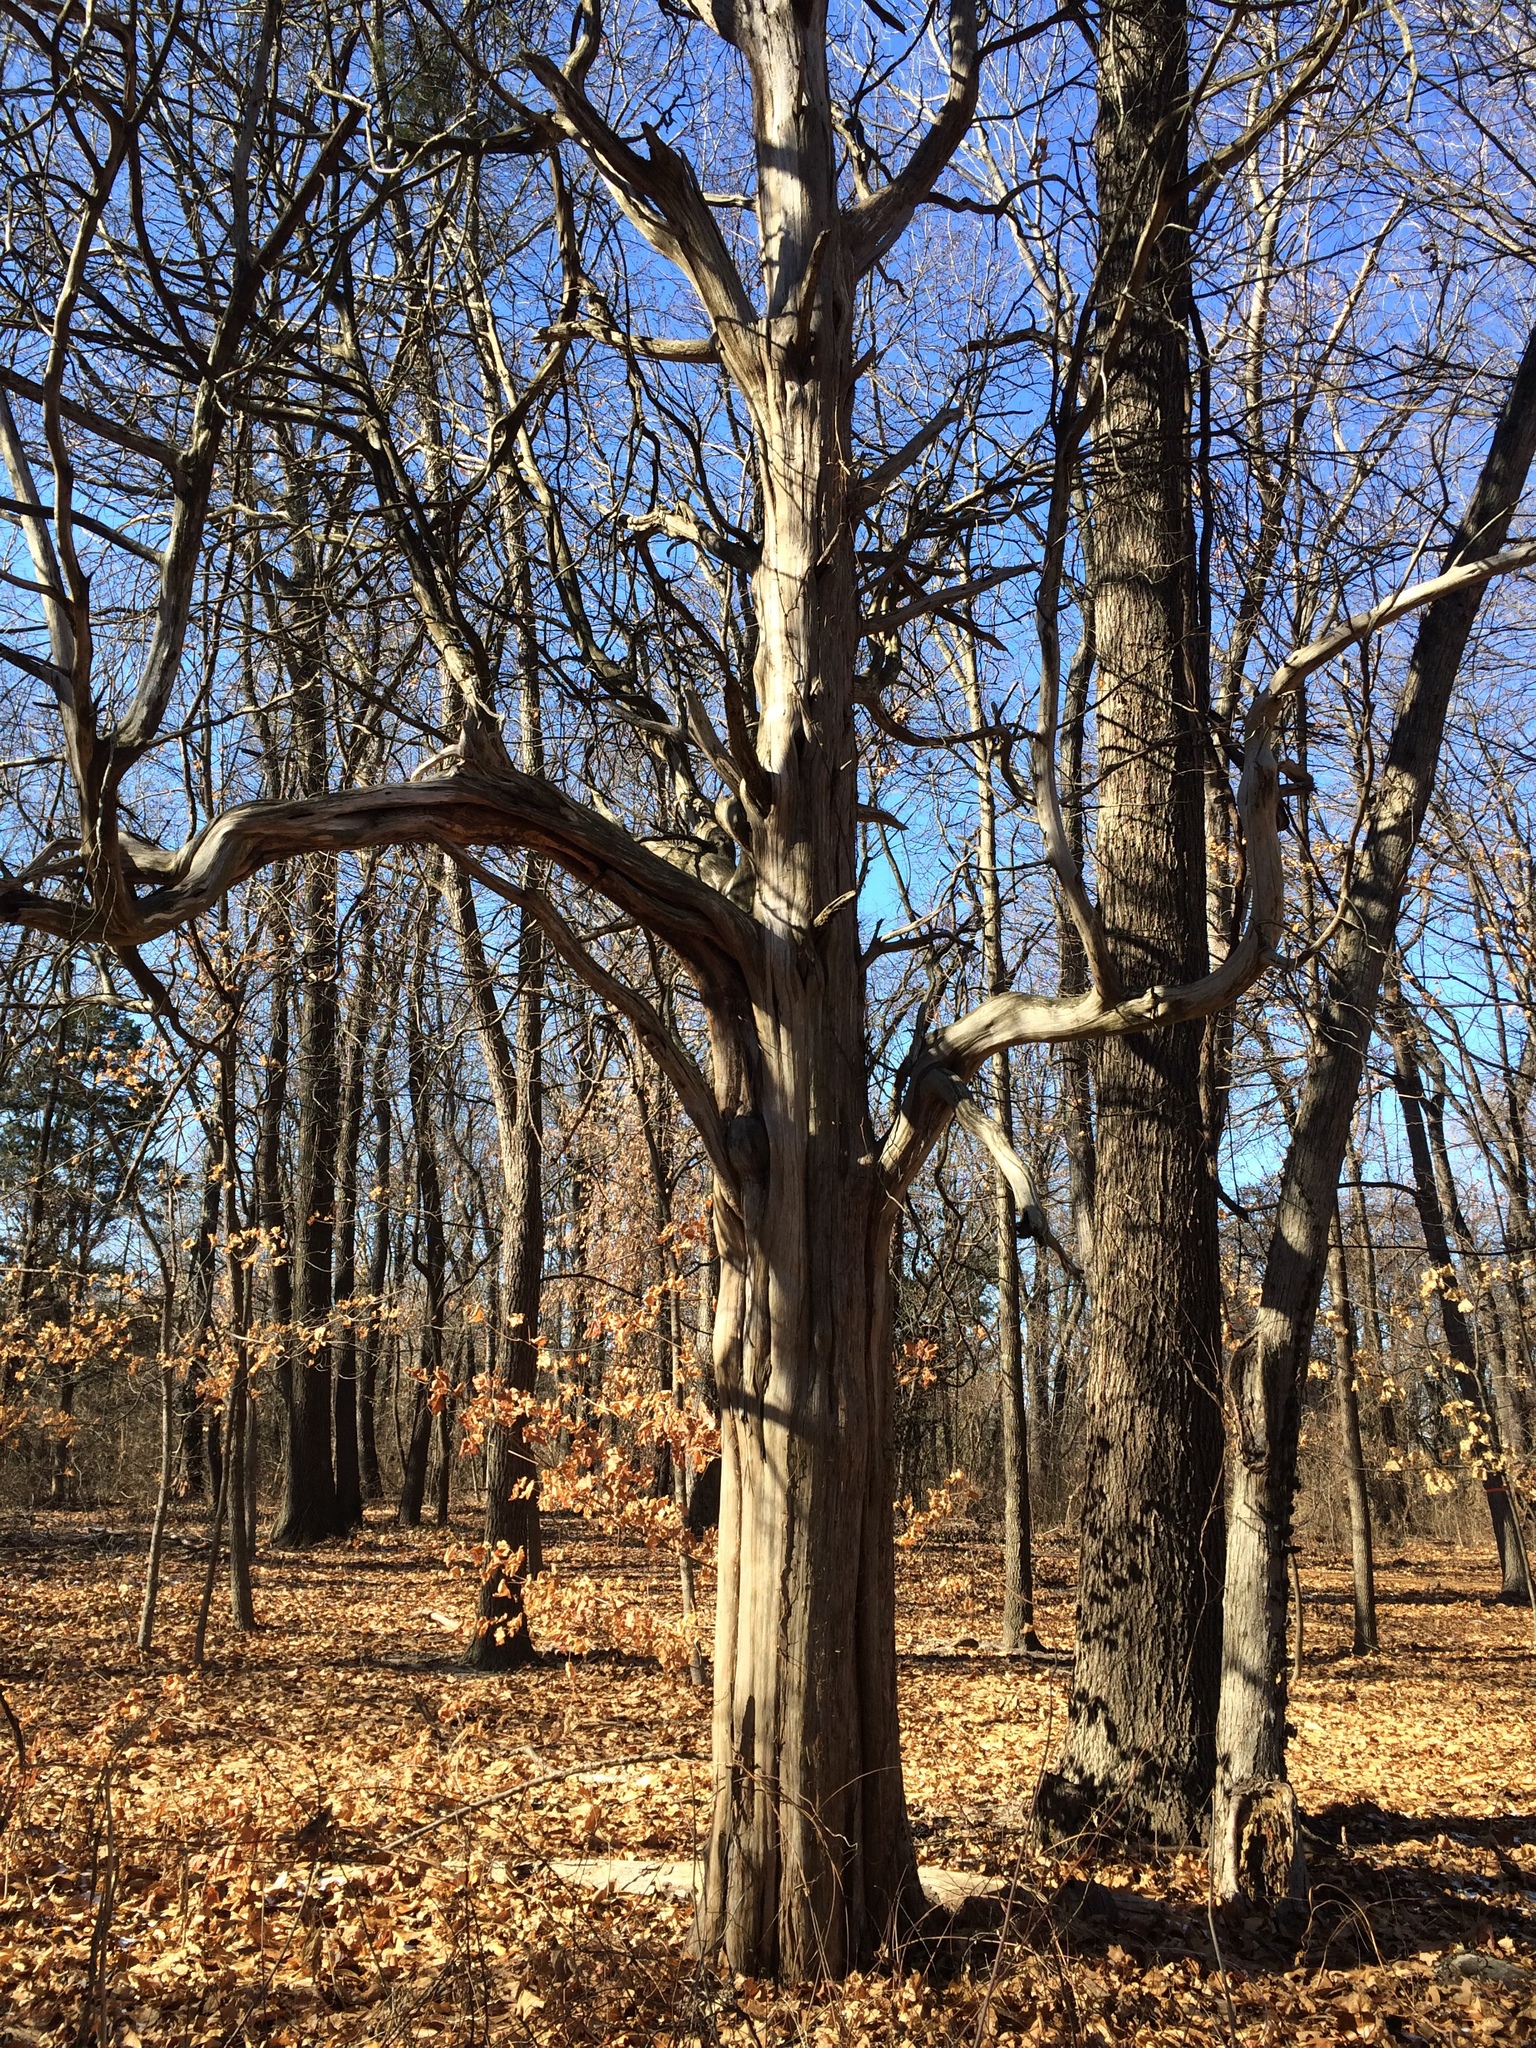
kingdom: Plantae
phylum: Tracheophyta
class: Pinopsida
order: Pinales
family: Cupressaceae
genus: Juniperus
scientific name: Juniperus virginiana
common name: Red juniper
